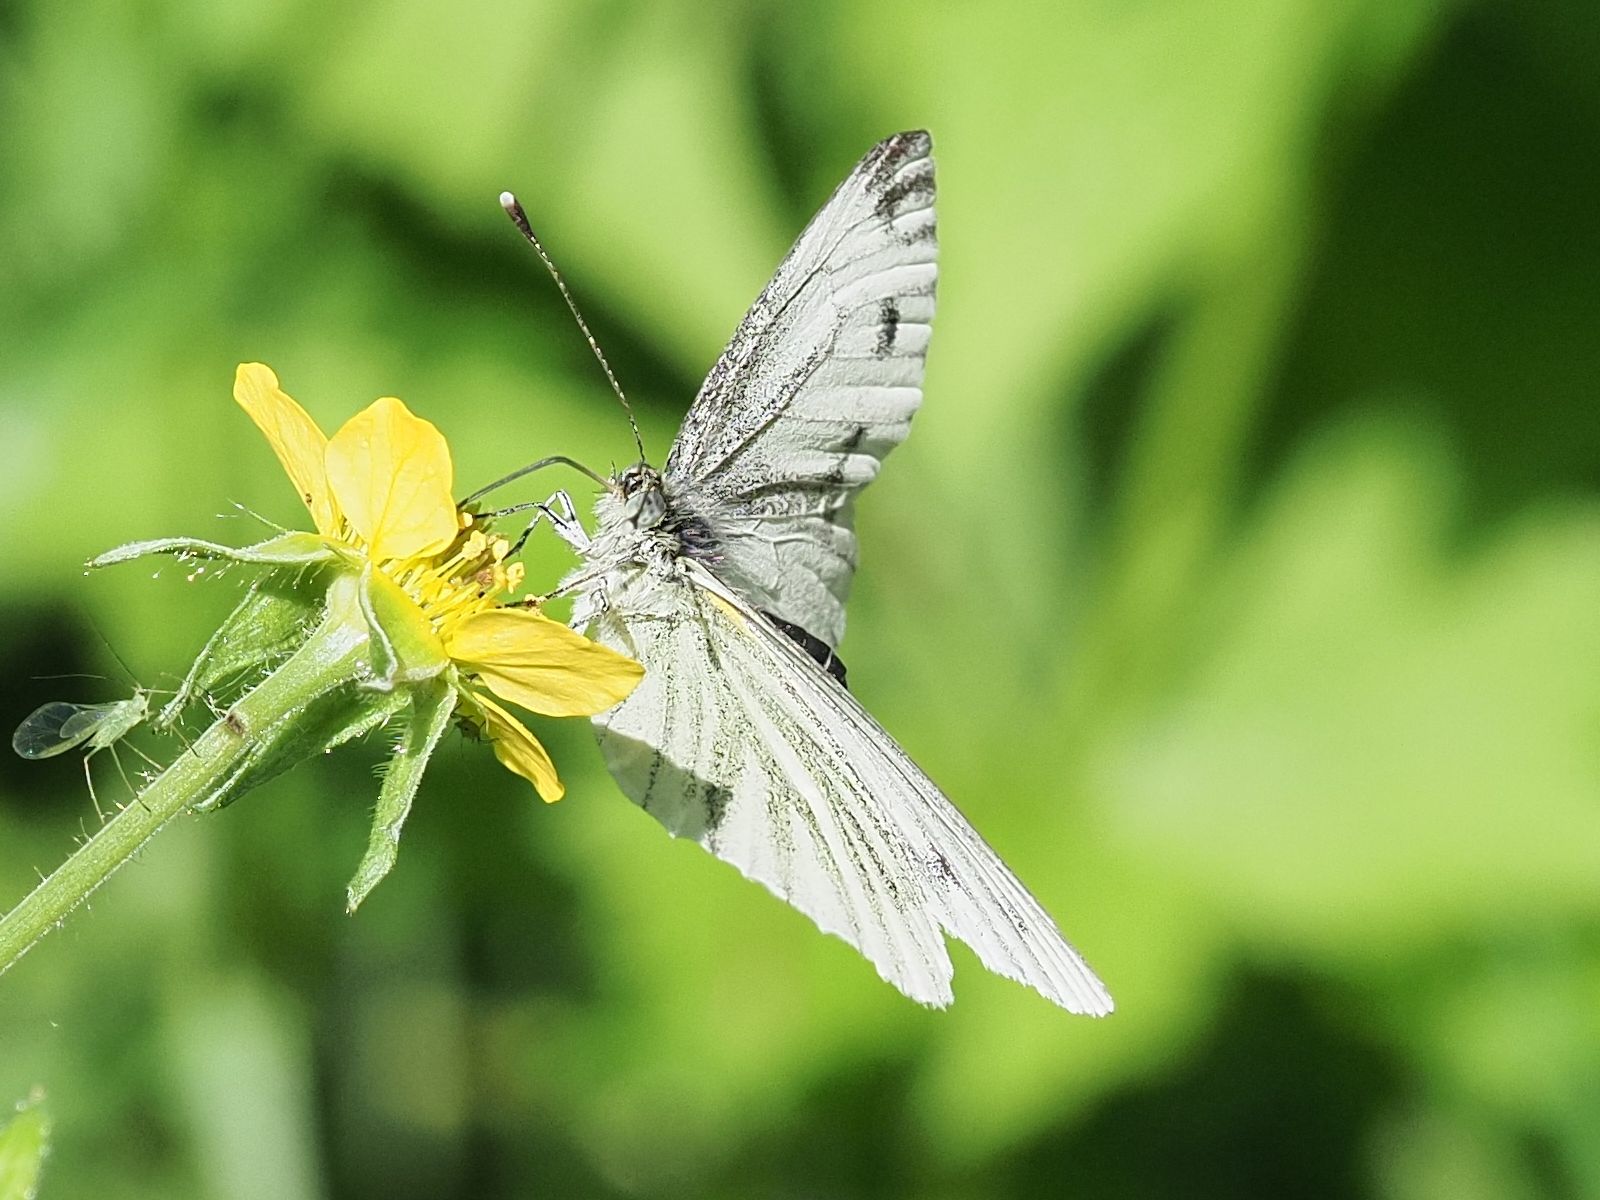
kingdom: Animalia
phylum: Arthropoda
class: Insecta
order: Lepidoptera
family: Pieridae
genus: Pieris
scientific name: Pieris napi
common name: Green-veined white
